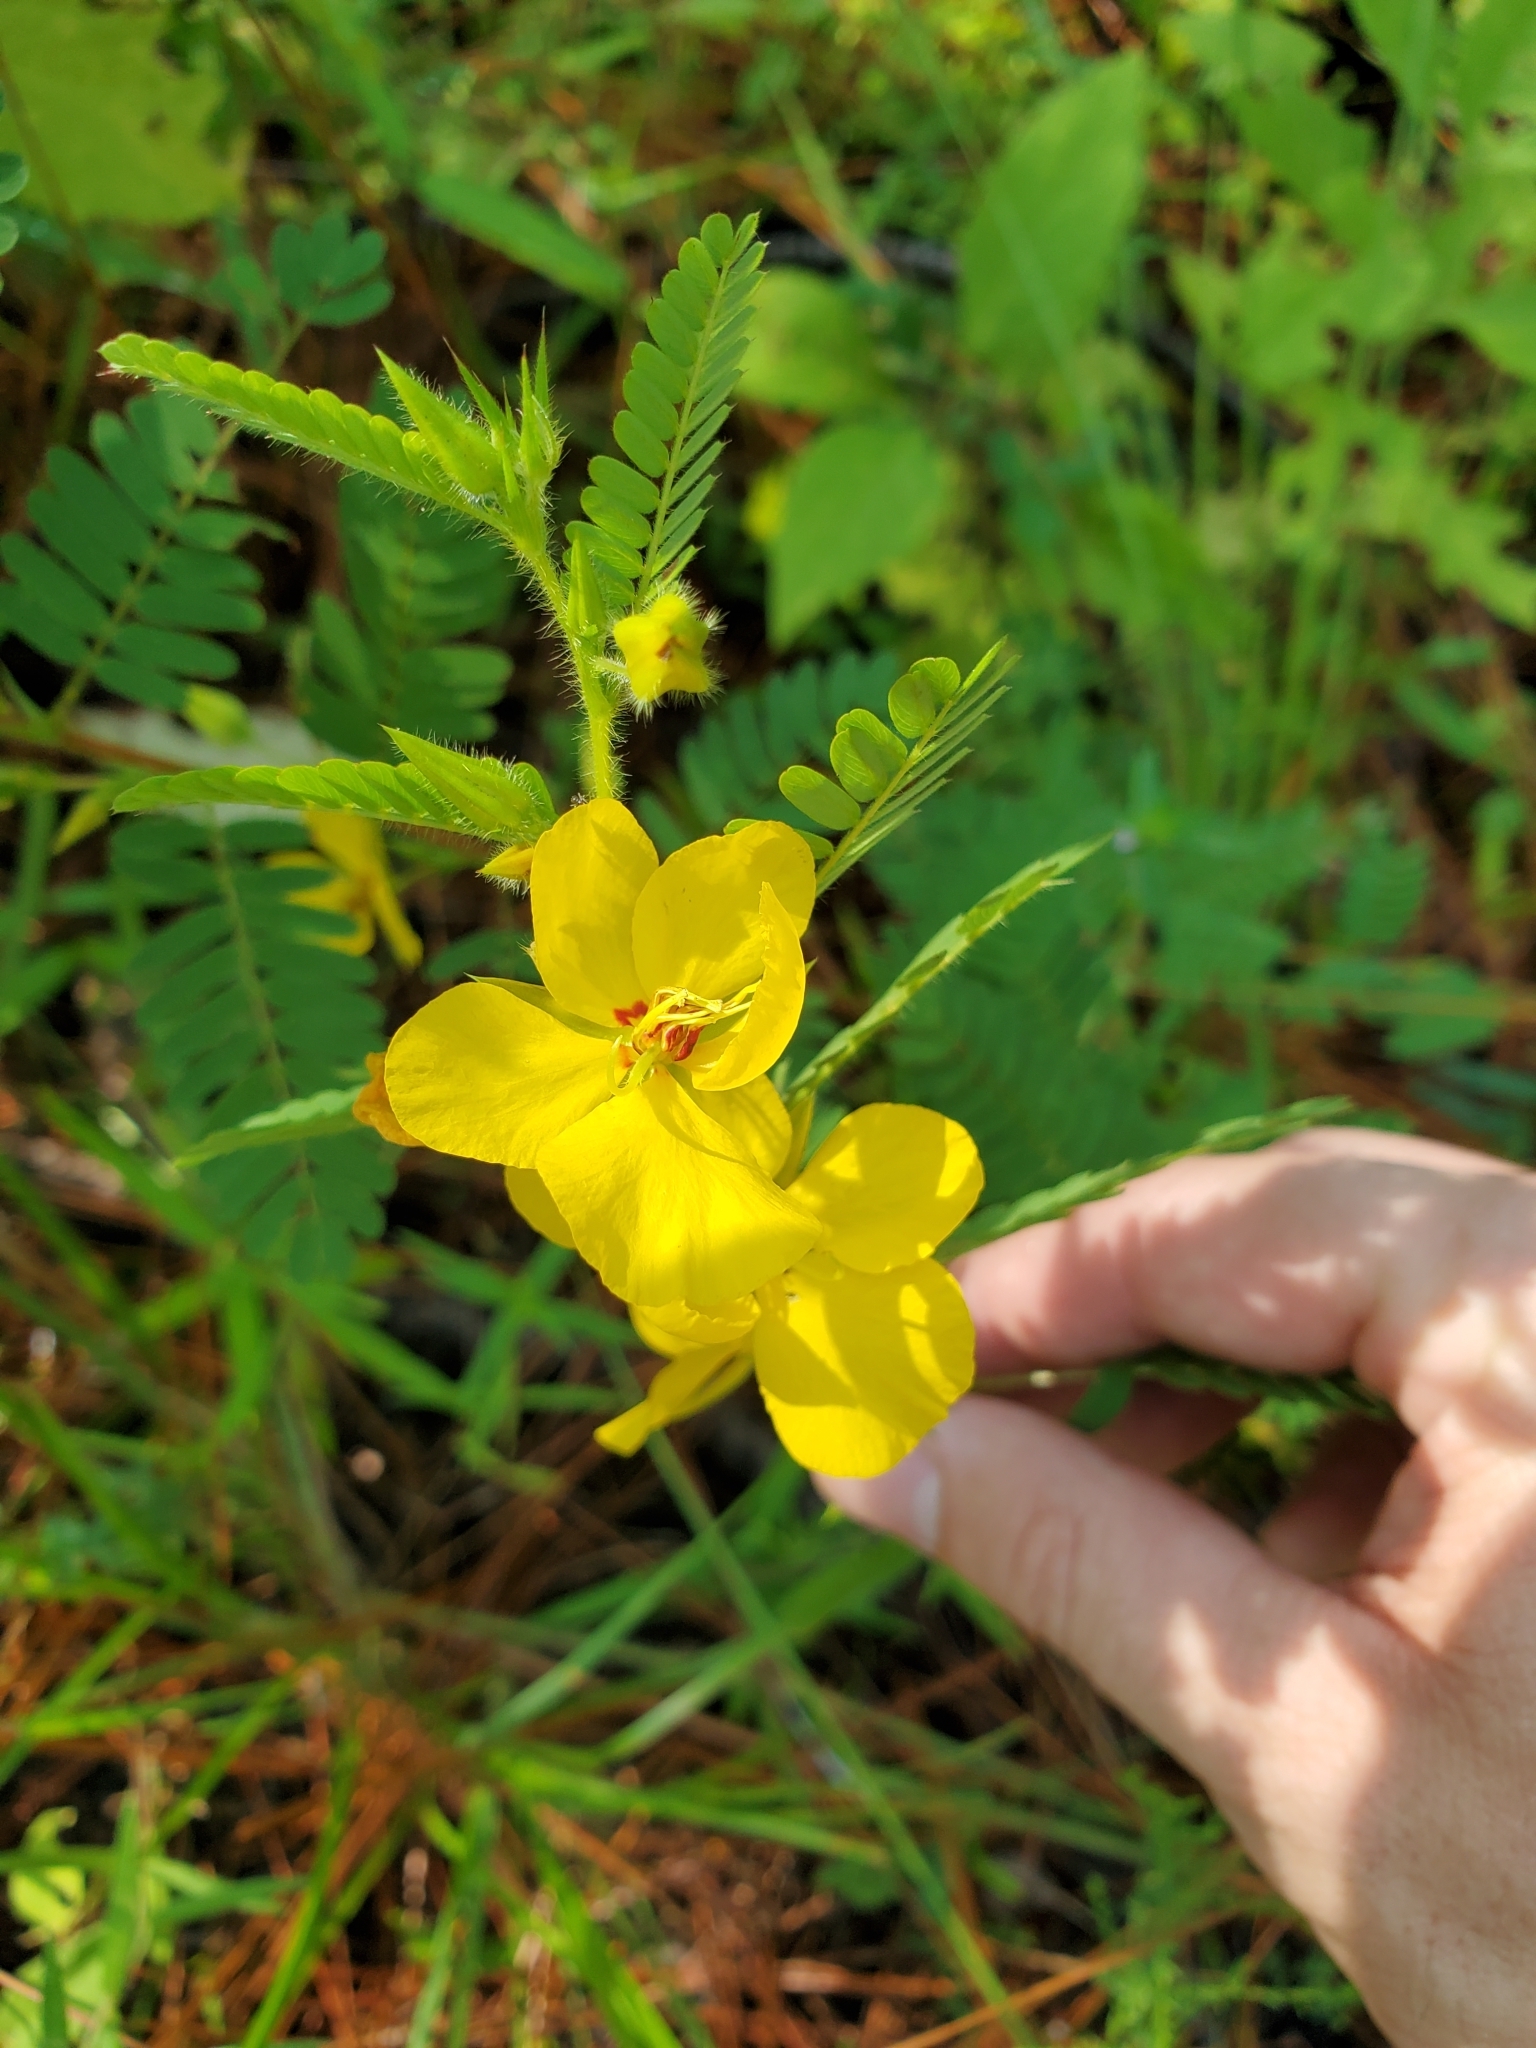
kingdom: Plantae
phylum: Tracheophyta
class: Magnoliopsida
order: Fabales
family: Fabaceae
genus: Chamaecrista
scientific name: Chamaecrista fasciculata
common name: Golden cassia
